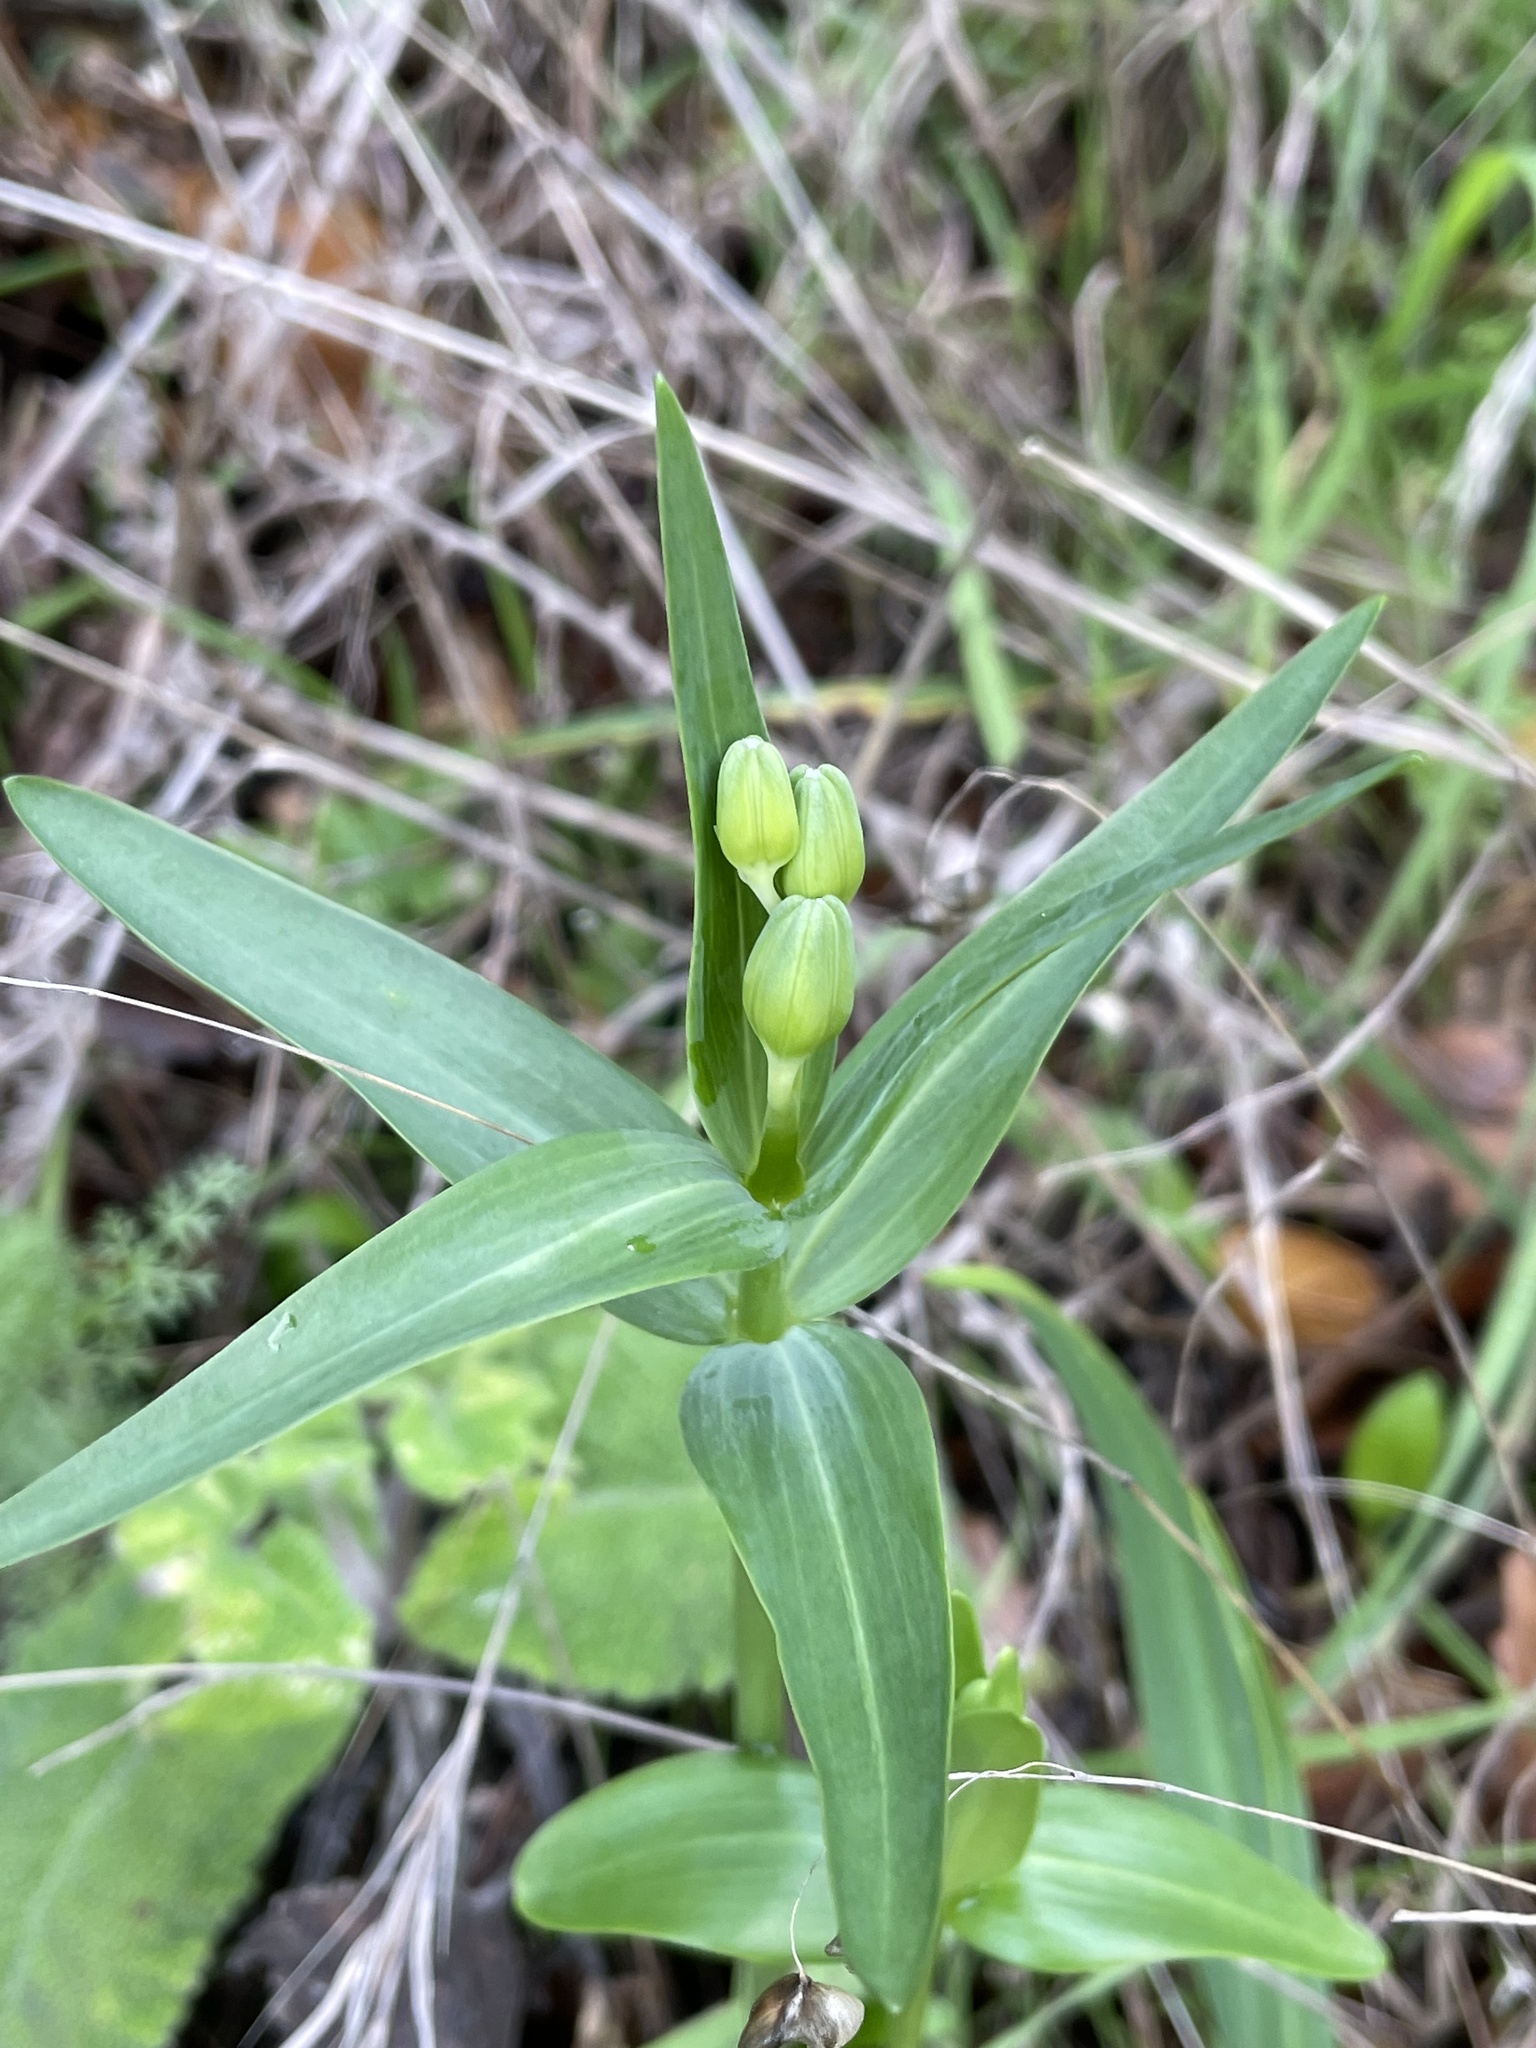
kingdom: Plantae
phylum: Tracheophyta
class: Liliopsida
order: Liliales
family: Liliaceae
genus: Fritillaria
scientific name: Fritillaria affinis
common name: Ojai fritillary
